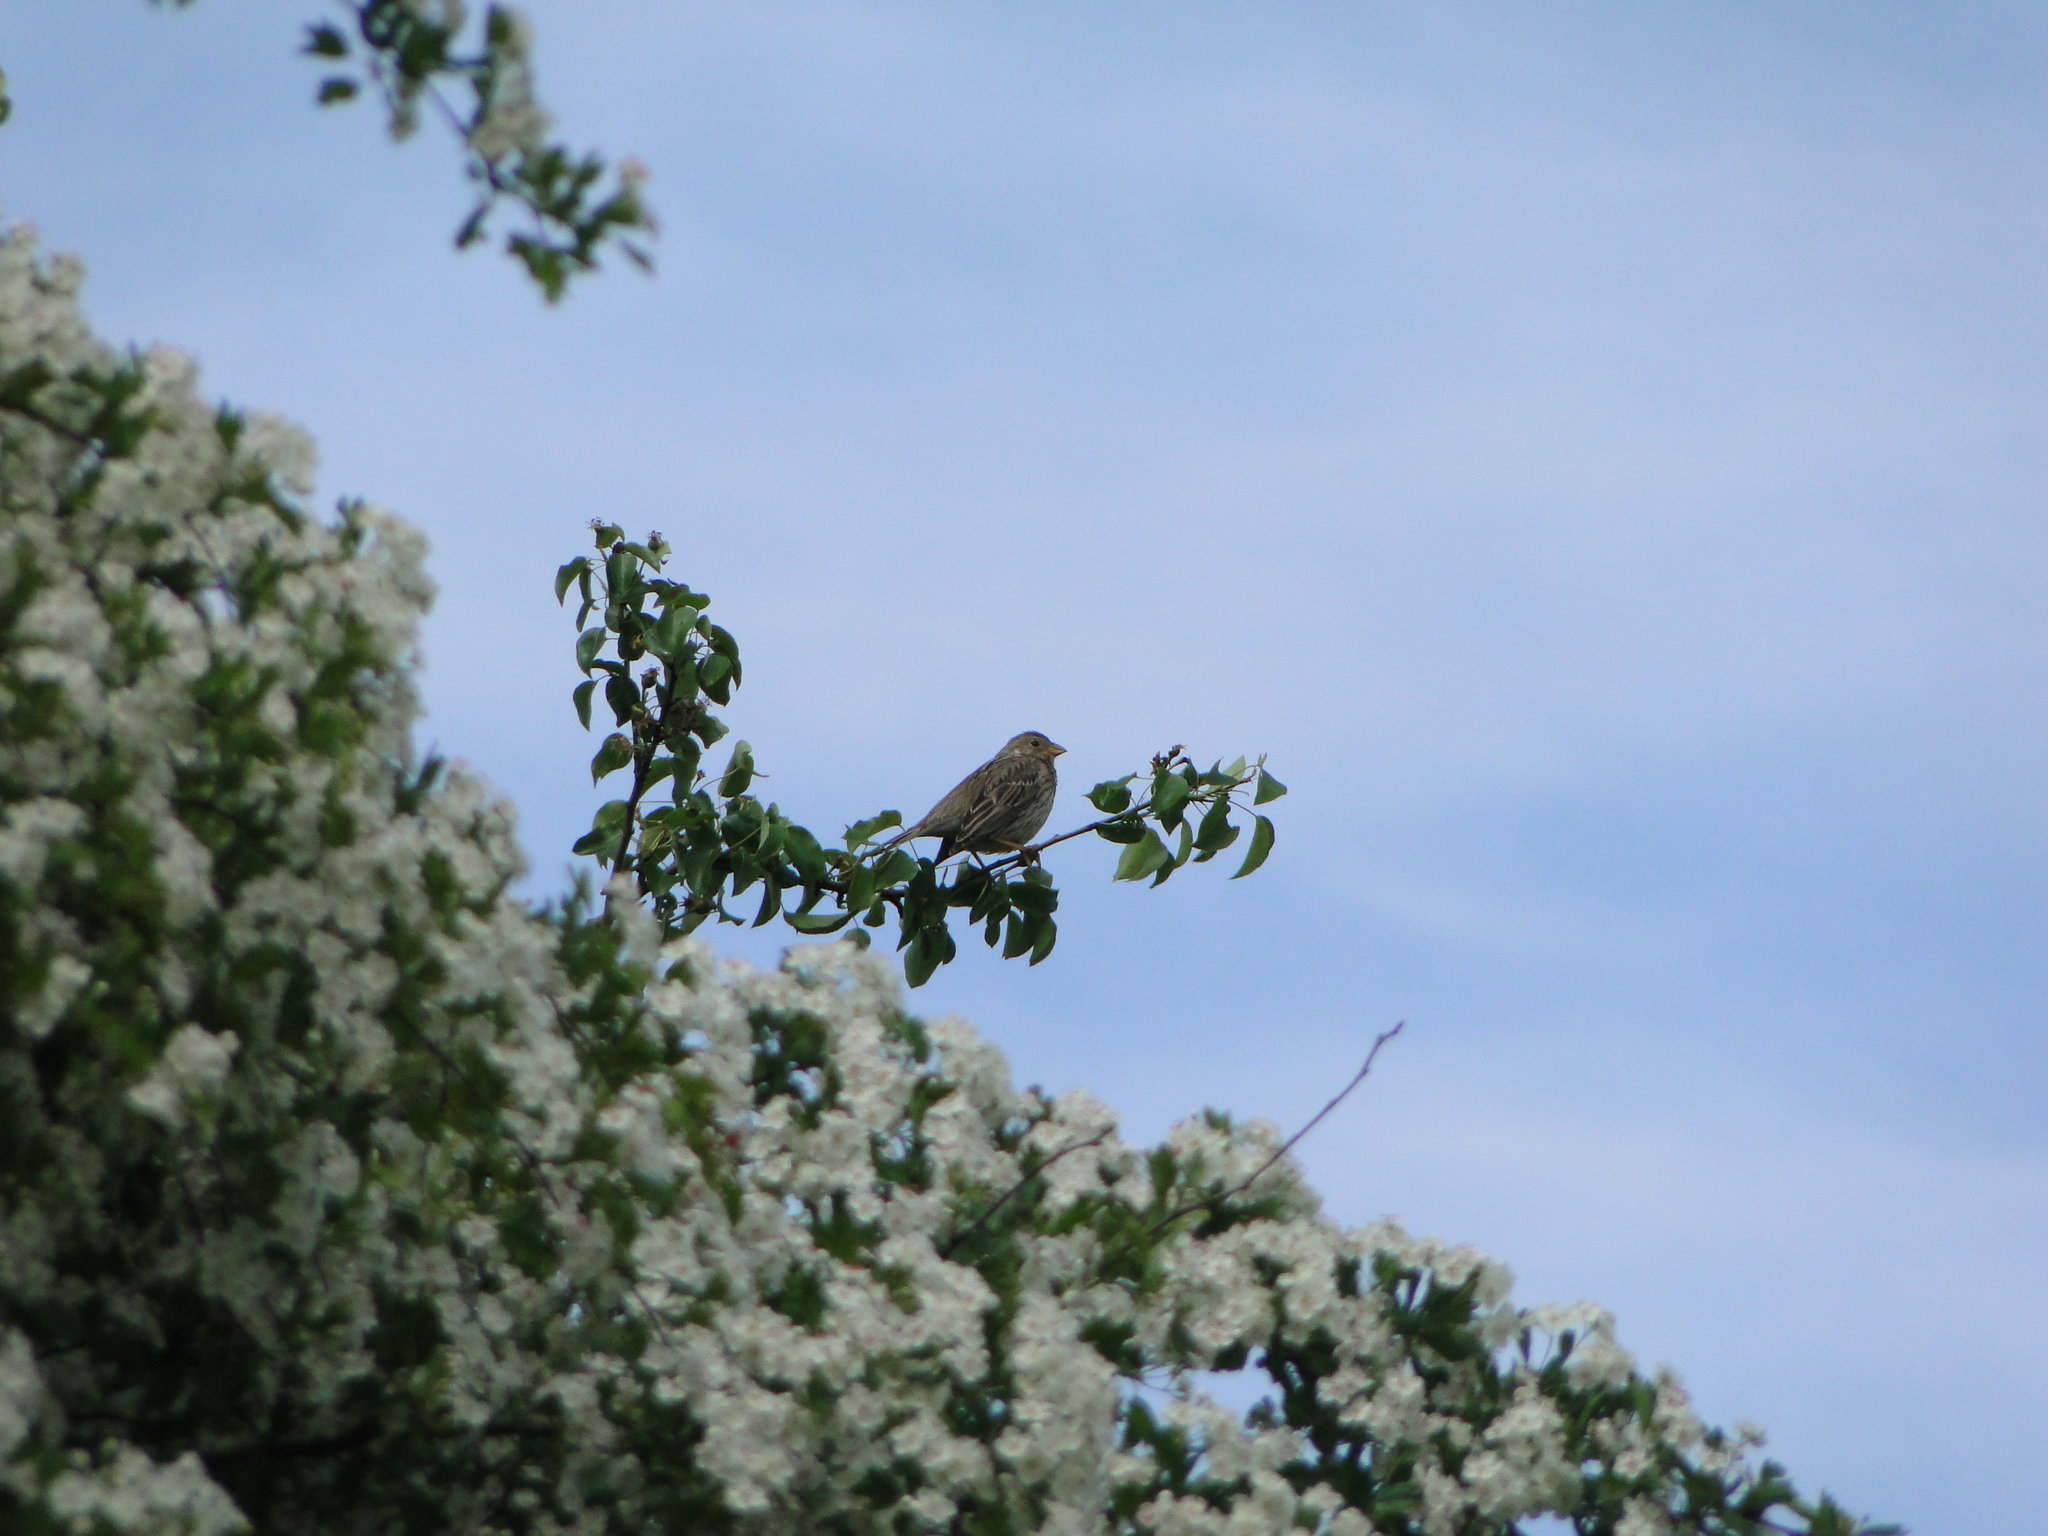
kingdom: Animalia
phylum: Chordata
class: Aves
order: Passeriformes
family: Emberizidae
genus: Emberiza
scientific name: Emberiza calandra
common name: Corn bunting
